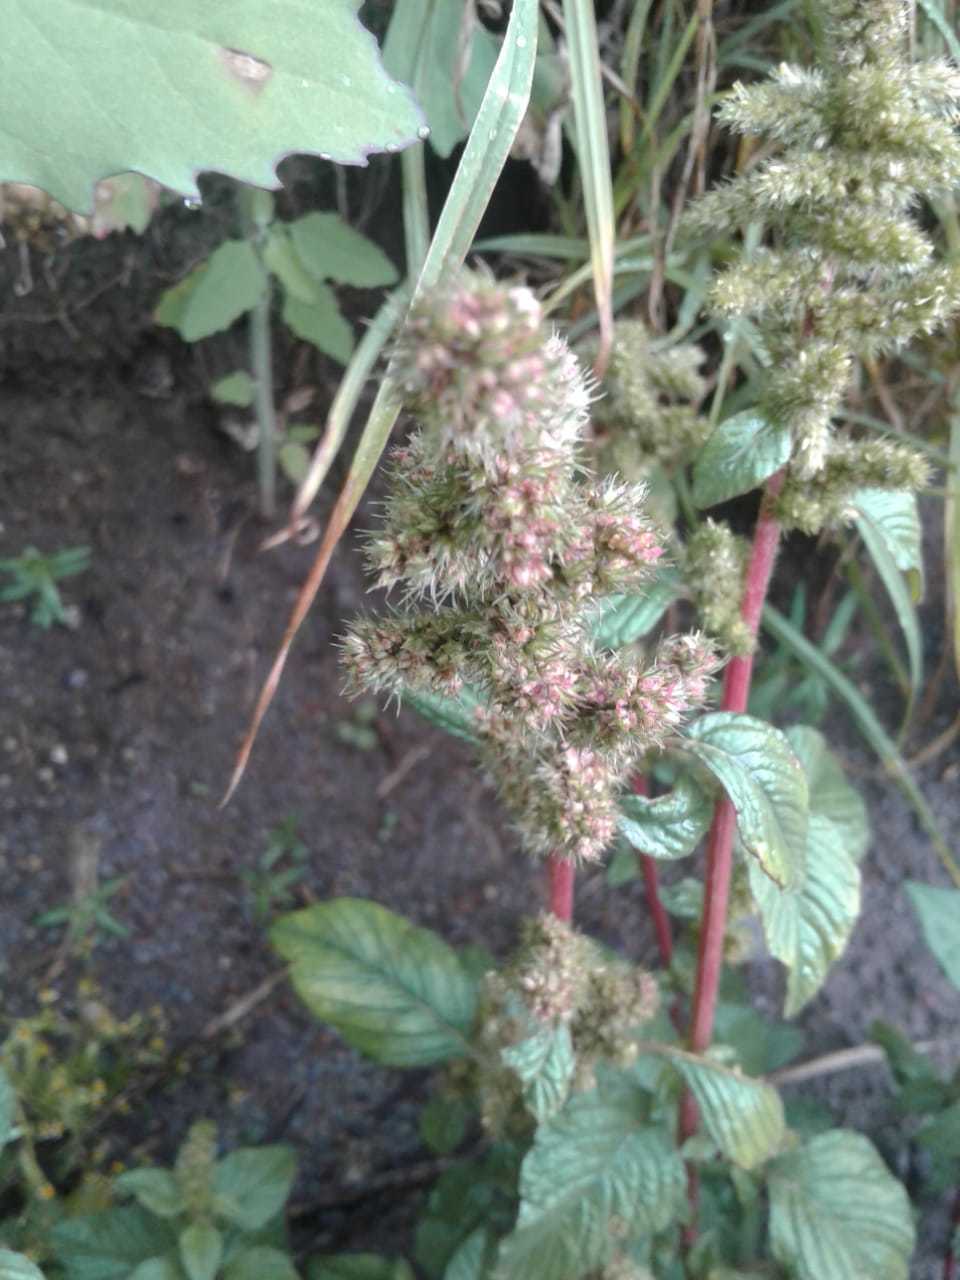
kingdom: Plantae
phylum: Tracheophyta
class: Magnoliopsida
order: Caryophyllales
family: Amaranthaceae
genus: Amaranthus
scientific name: Amaranthus hybridus
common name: Green amaranth
